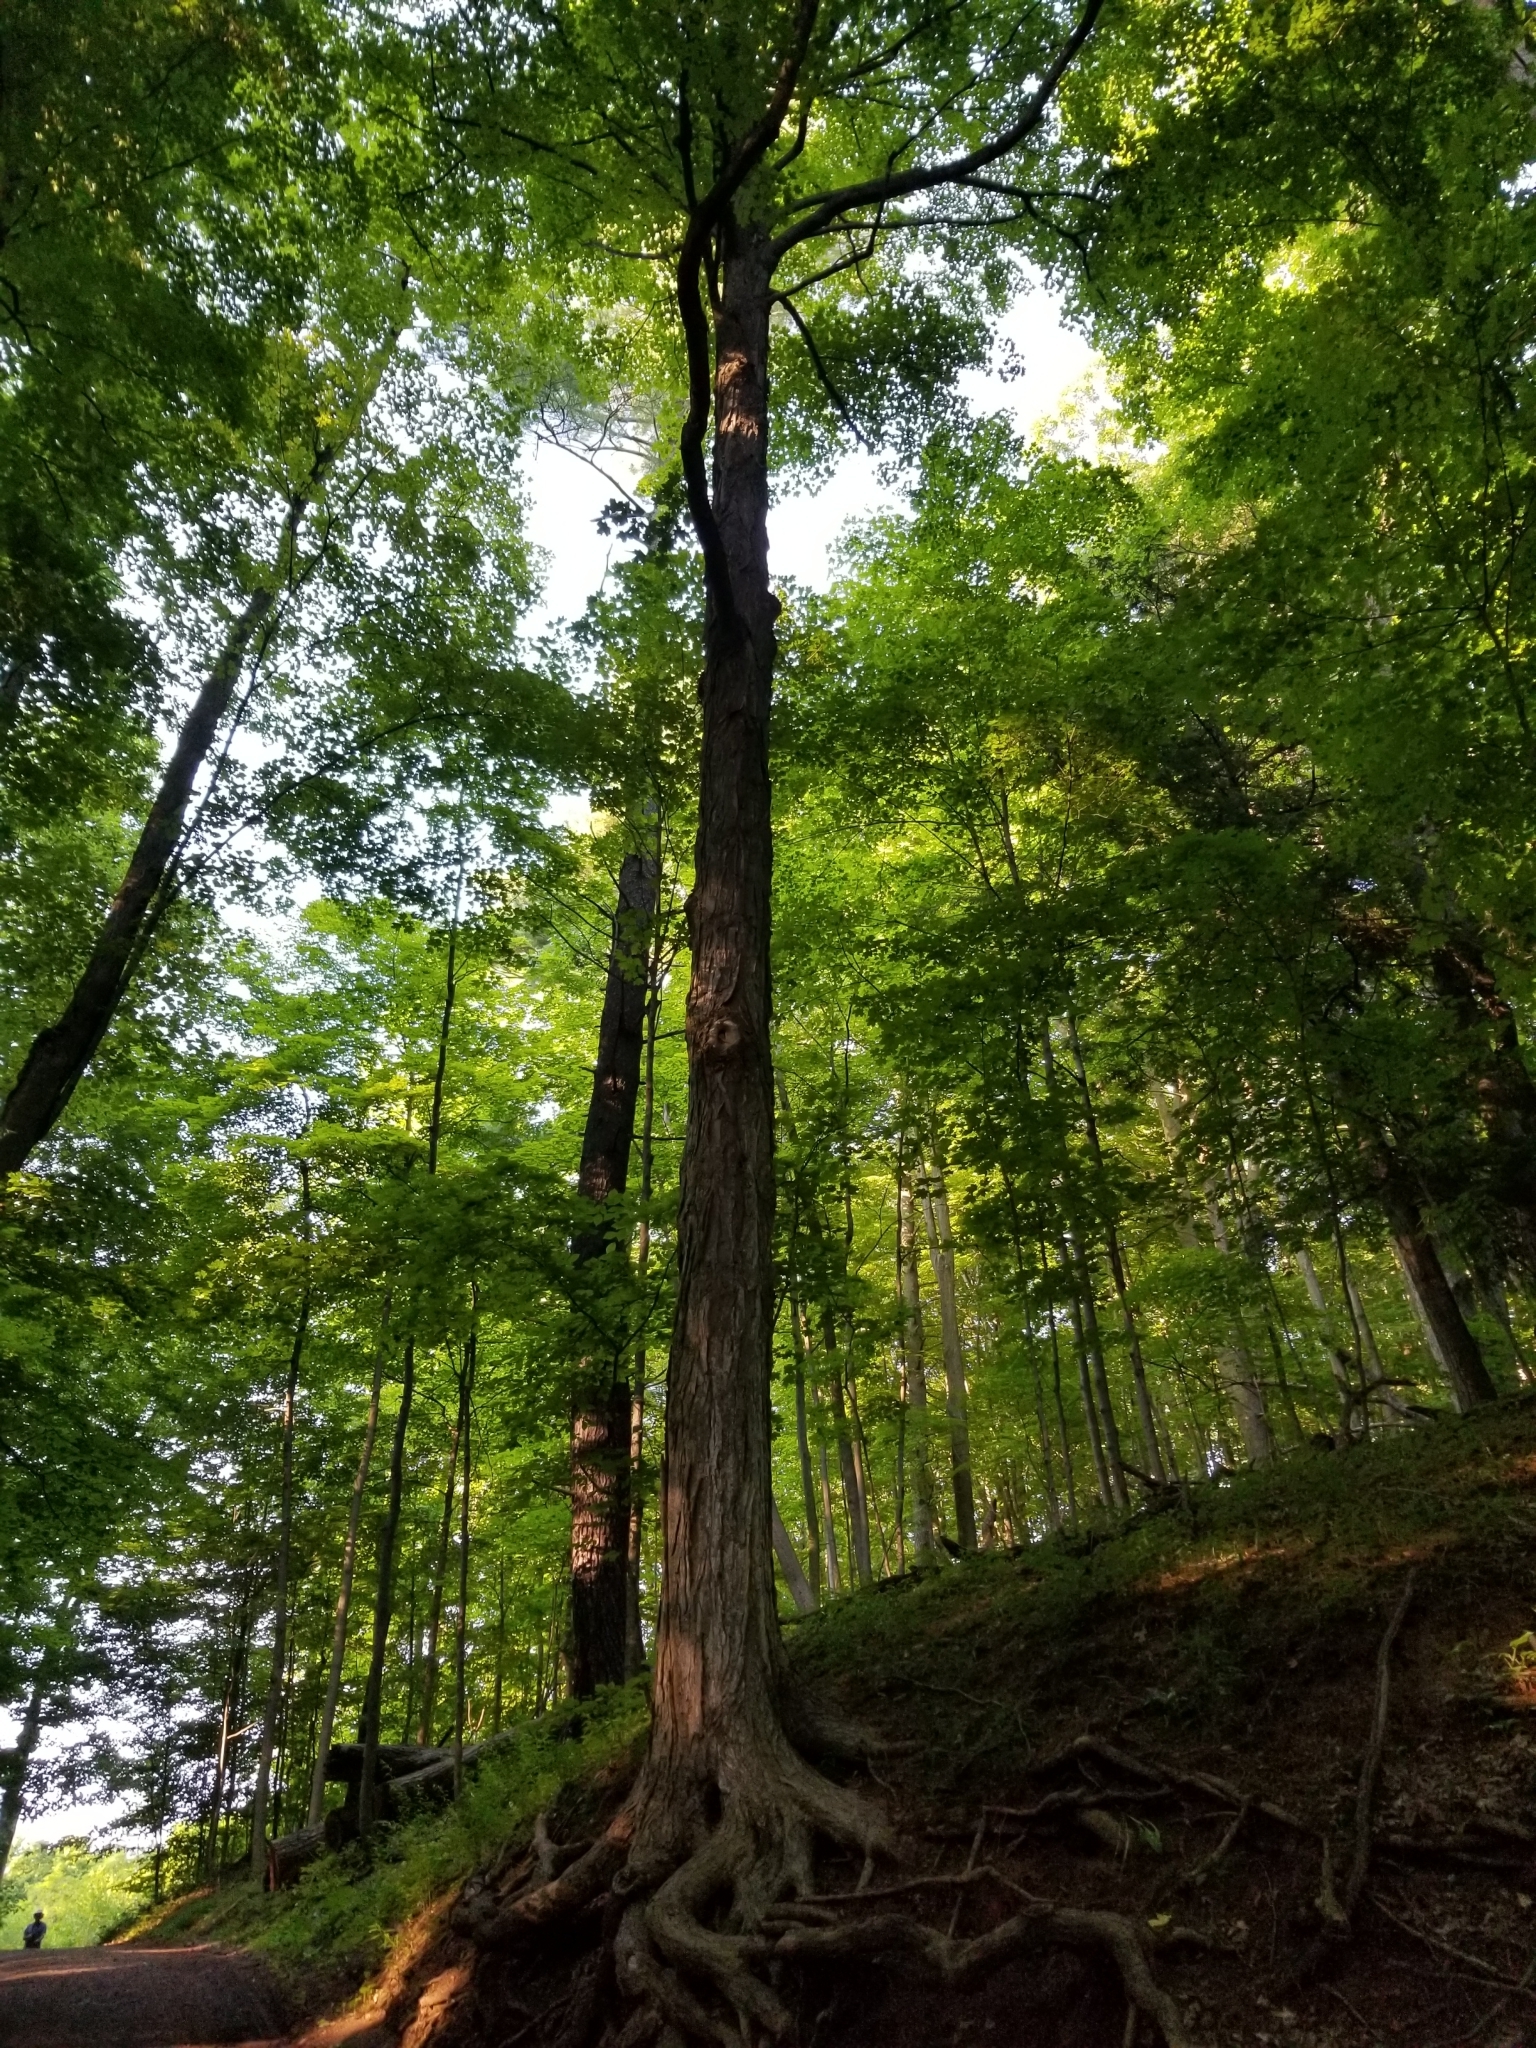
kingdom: Plantae
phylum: Tracheophyta
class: Magnoliopsida
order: Sapindales
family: Sapindaceae
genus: Acer
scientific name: Acer saccharum
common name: Sugar maple
